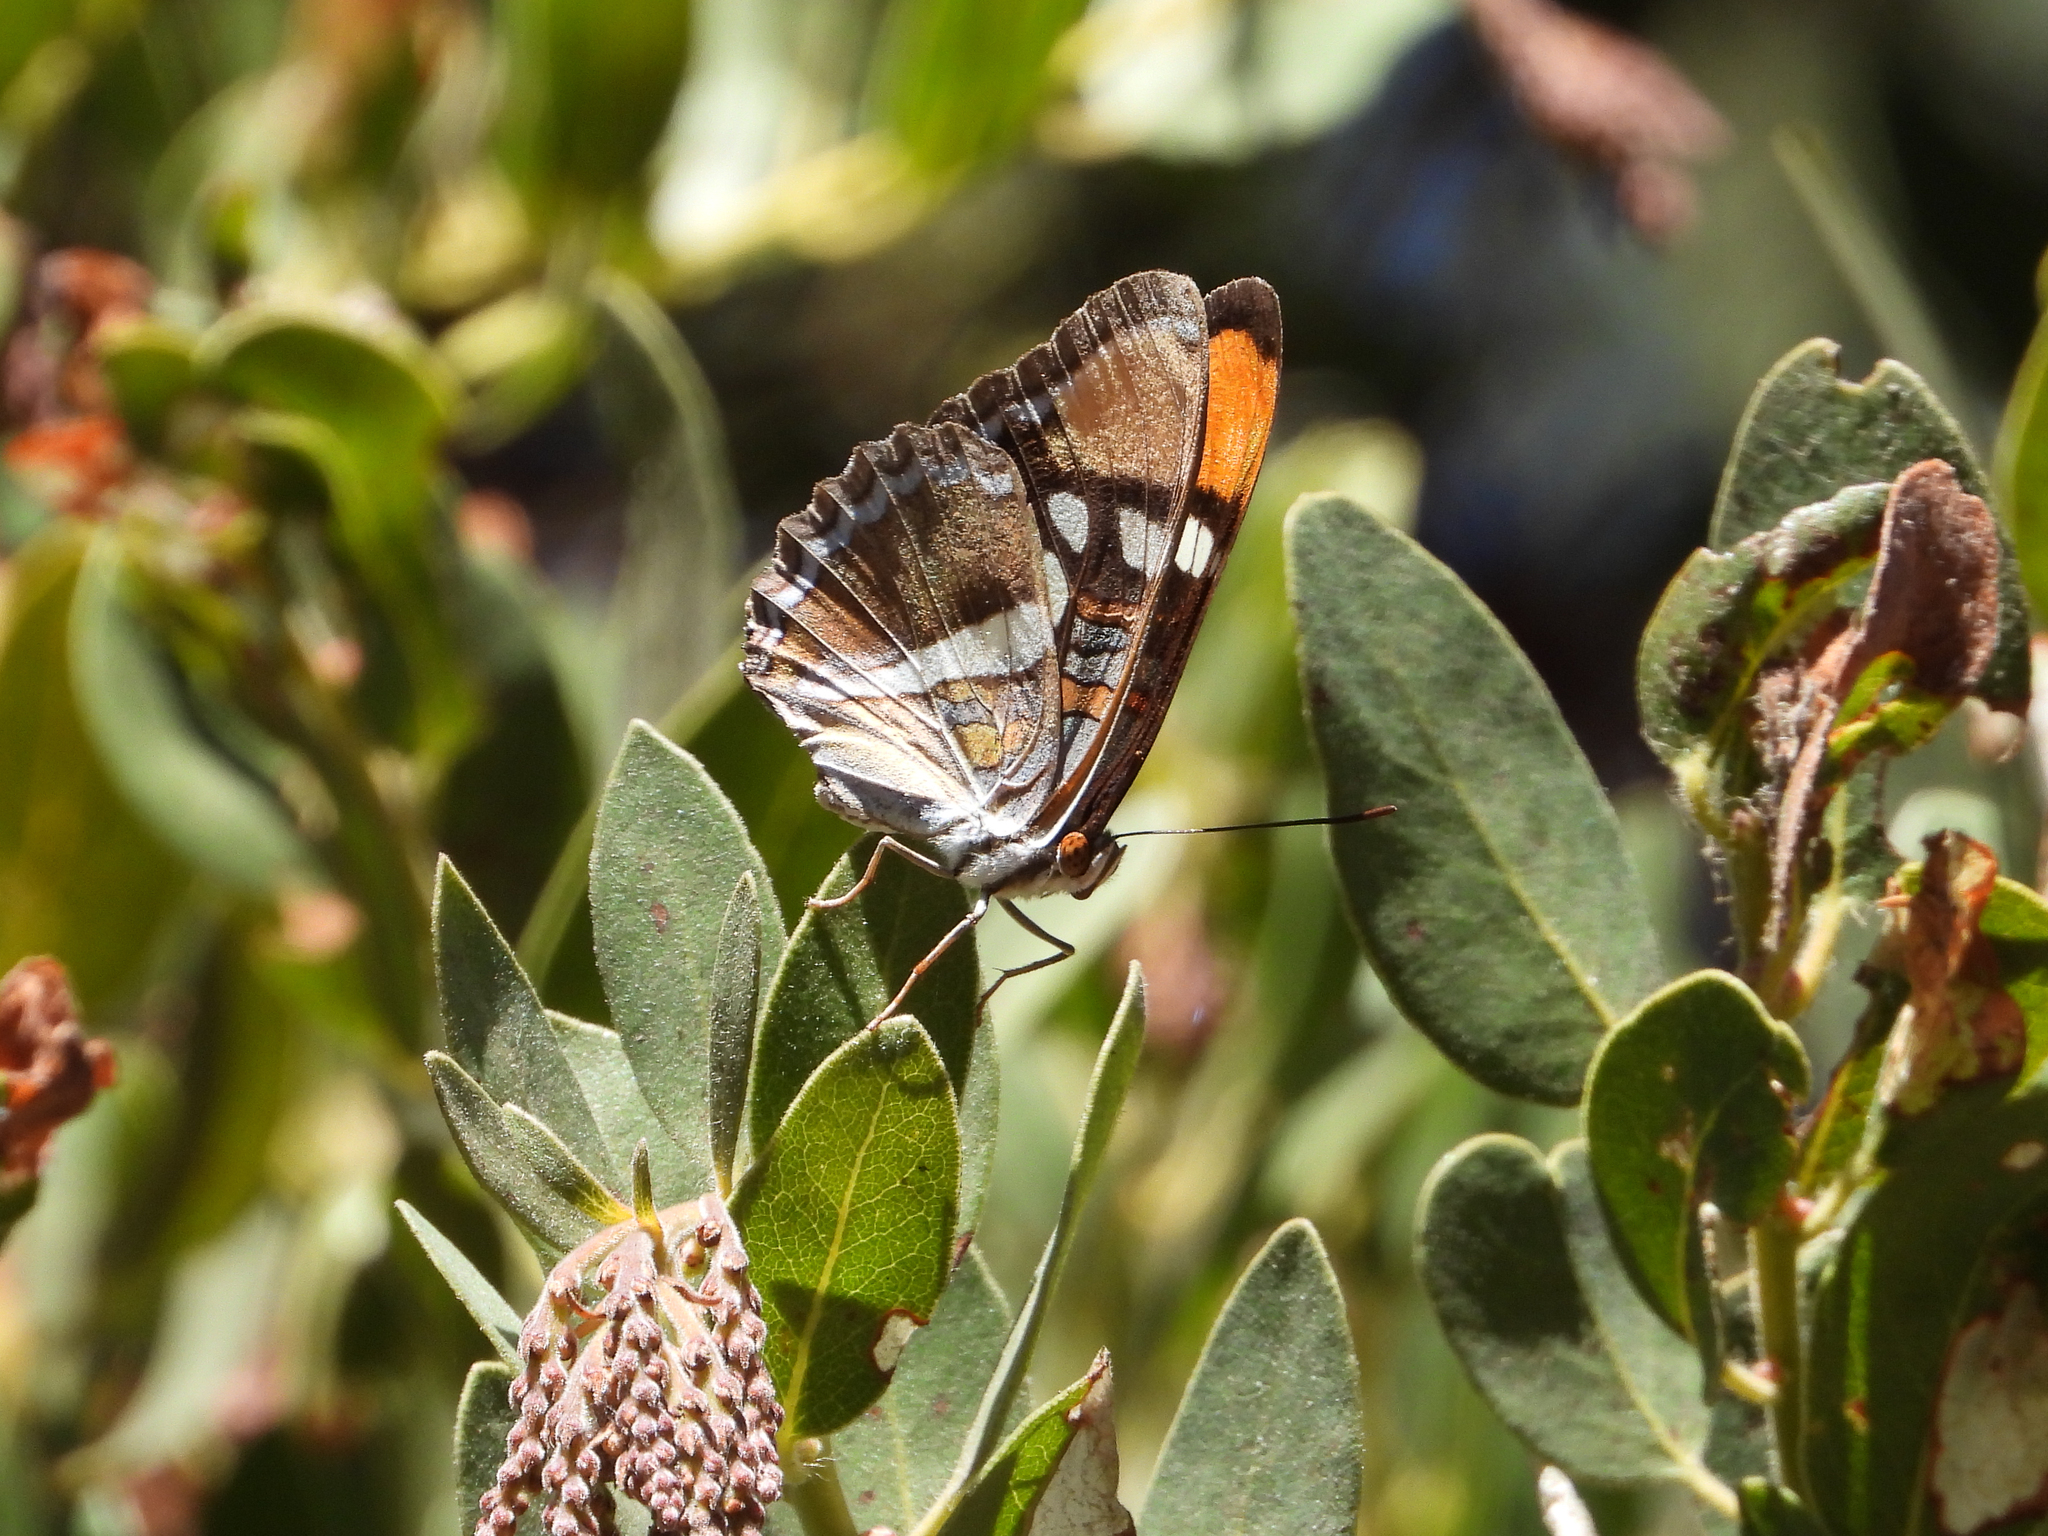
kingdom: Animalia
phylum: Arthropoda
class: Insecta
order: Lepidoptera
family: Nymphalidae
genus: Limenitis
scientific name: Limenitis bredowii
